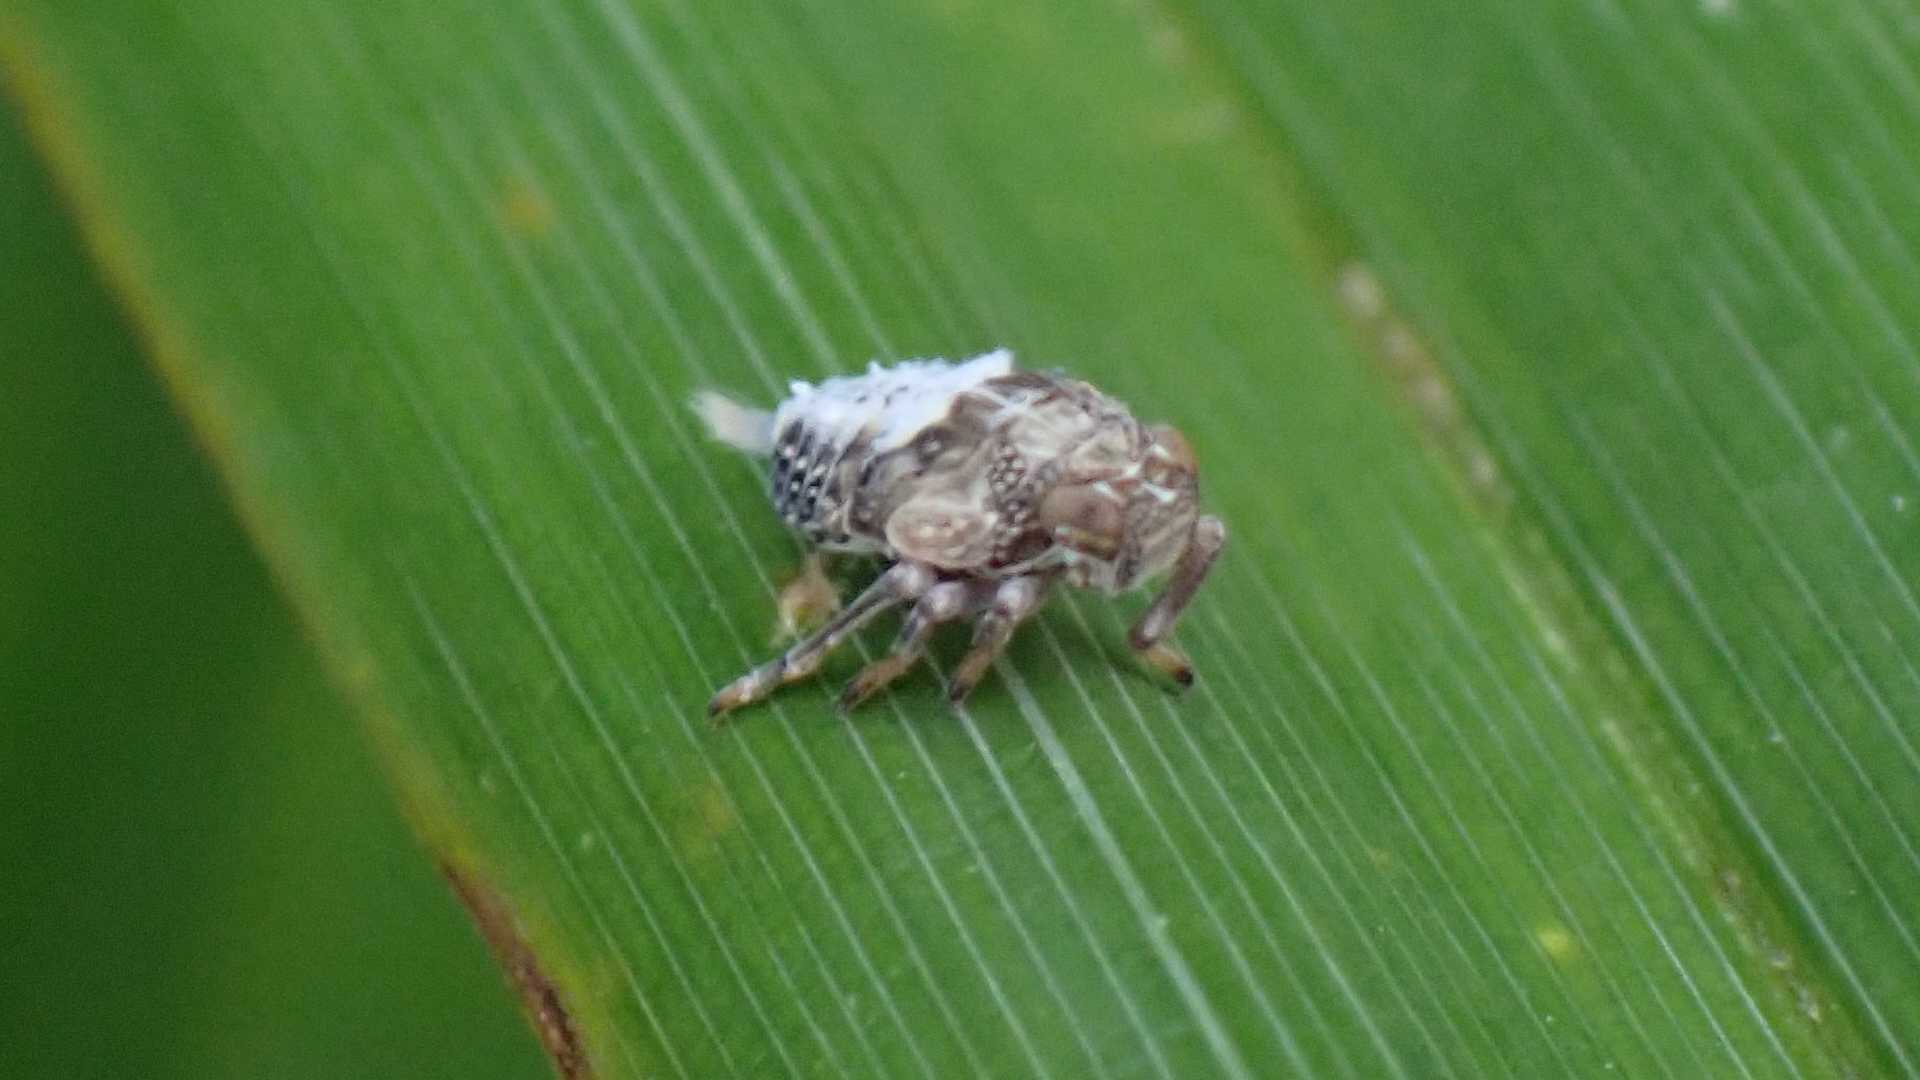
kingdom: Animalia
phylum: Arthropoda
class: Insecta
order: Hemiptera
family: Issidae
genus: Issus
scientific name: Issus coleoptratus
